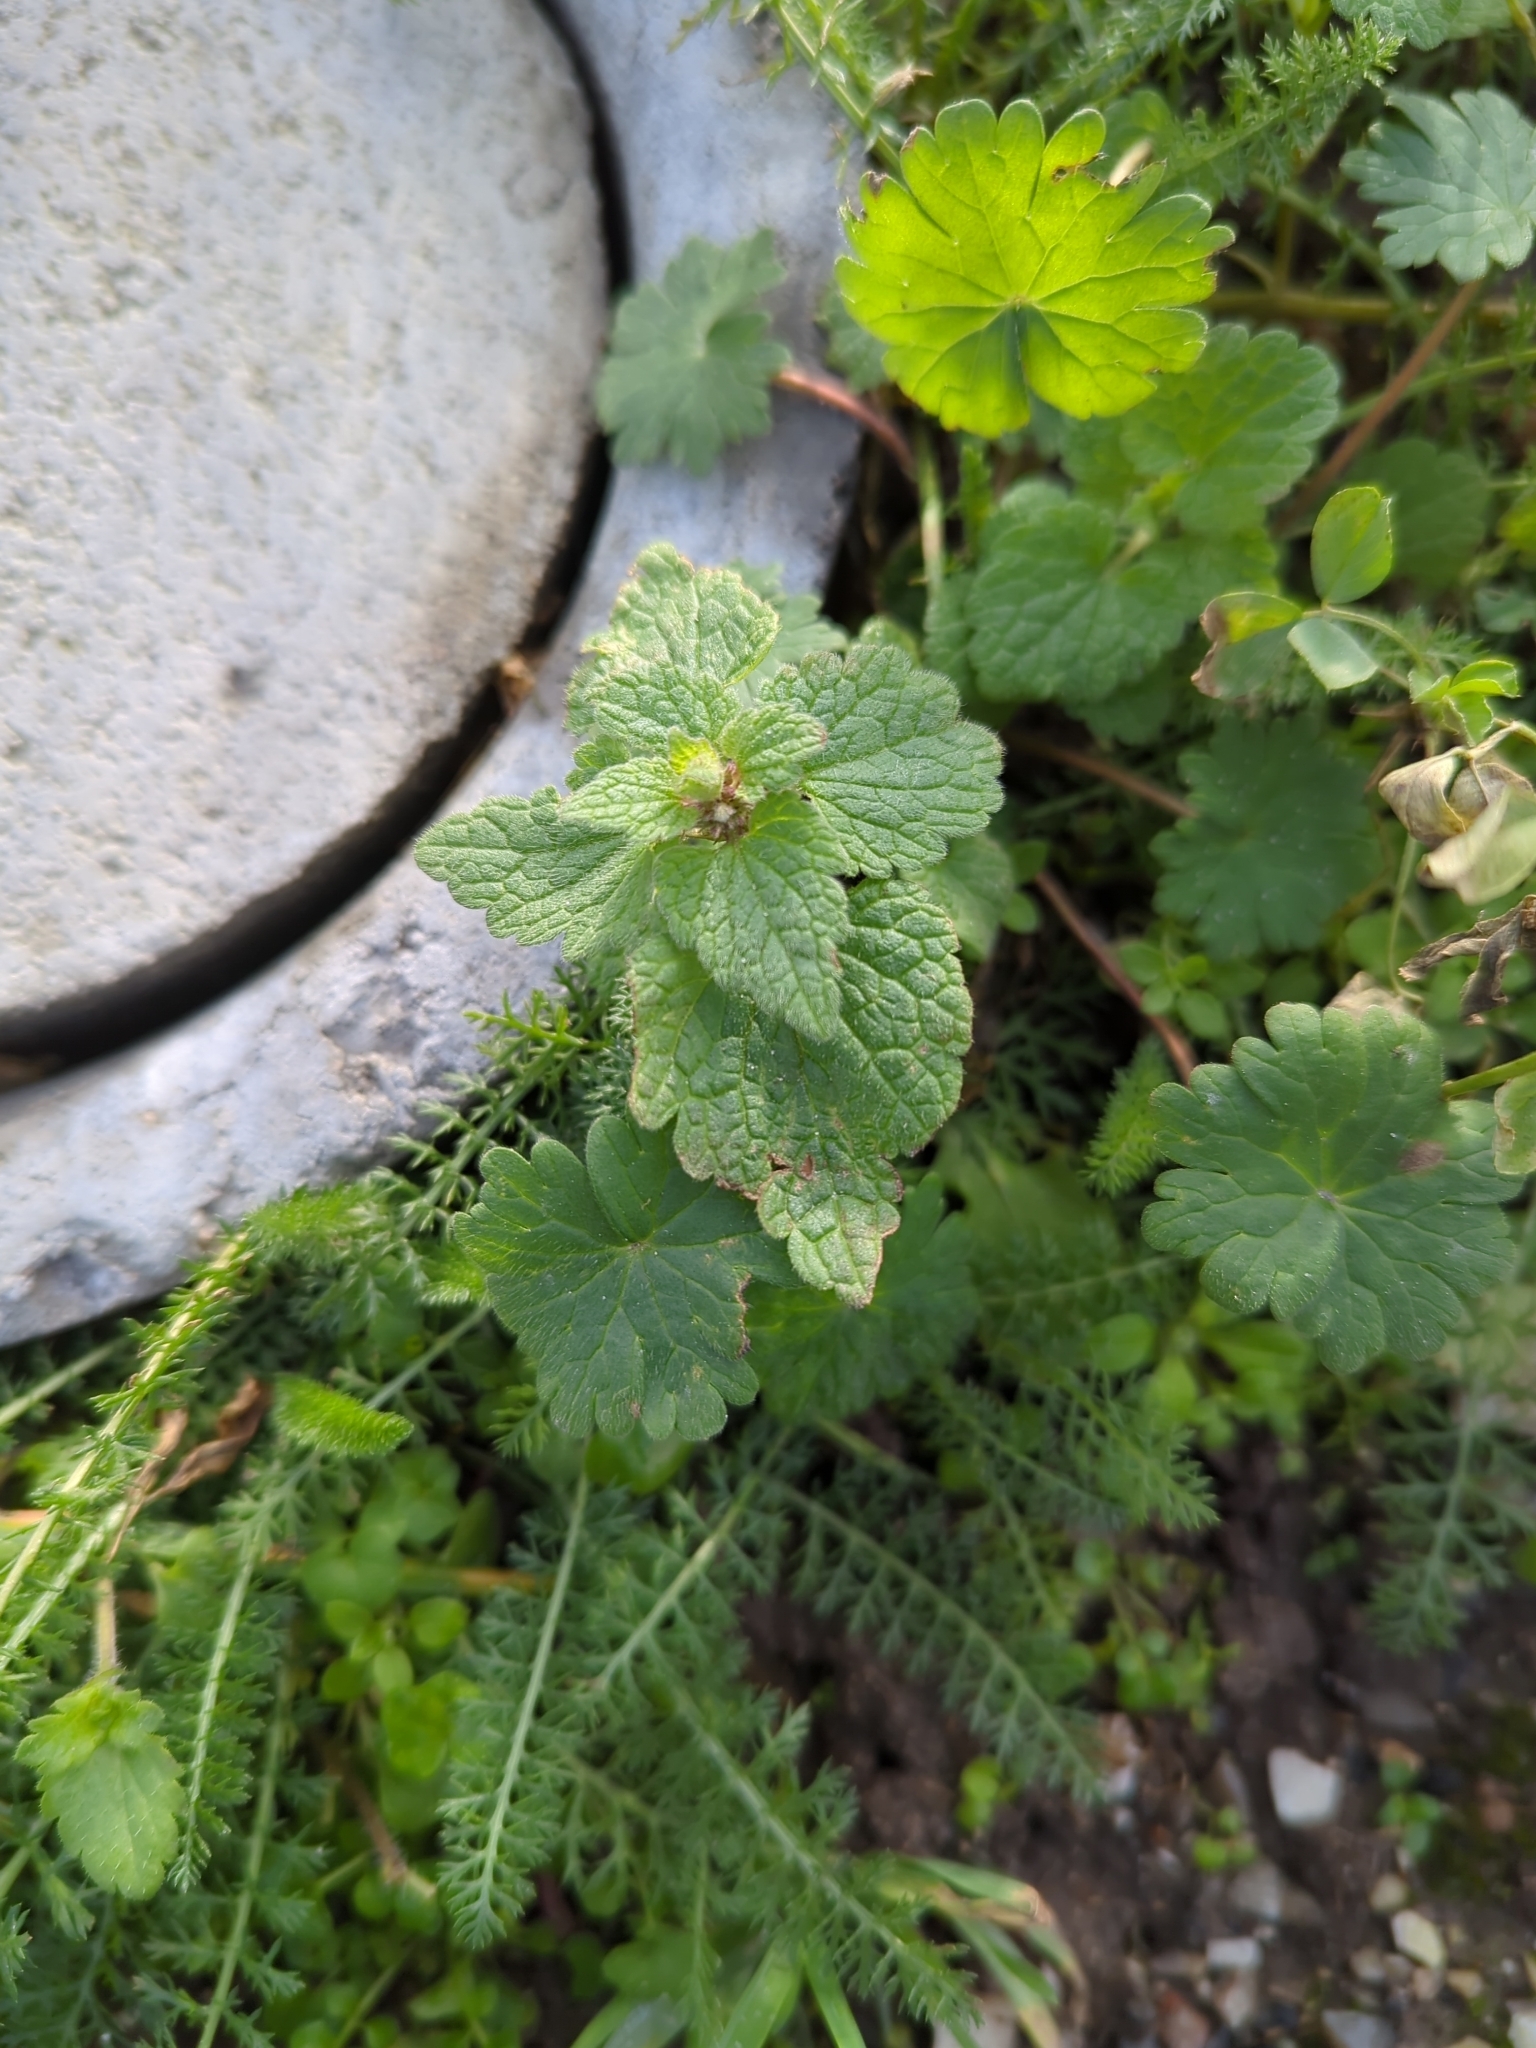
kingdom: Plantae
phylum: Tracheophyta
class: Magnoliopsida
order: Lamiales
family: Lamiaceae
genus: Lamium
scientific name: Lamium purpureum
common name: Red dead-nettle
